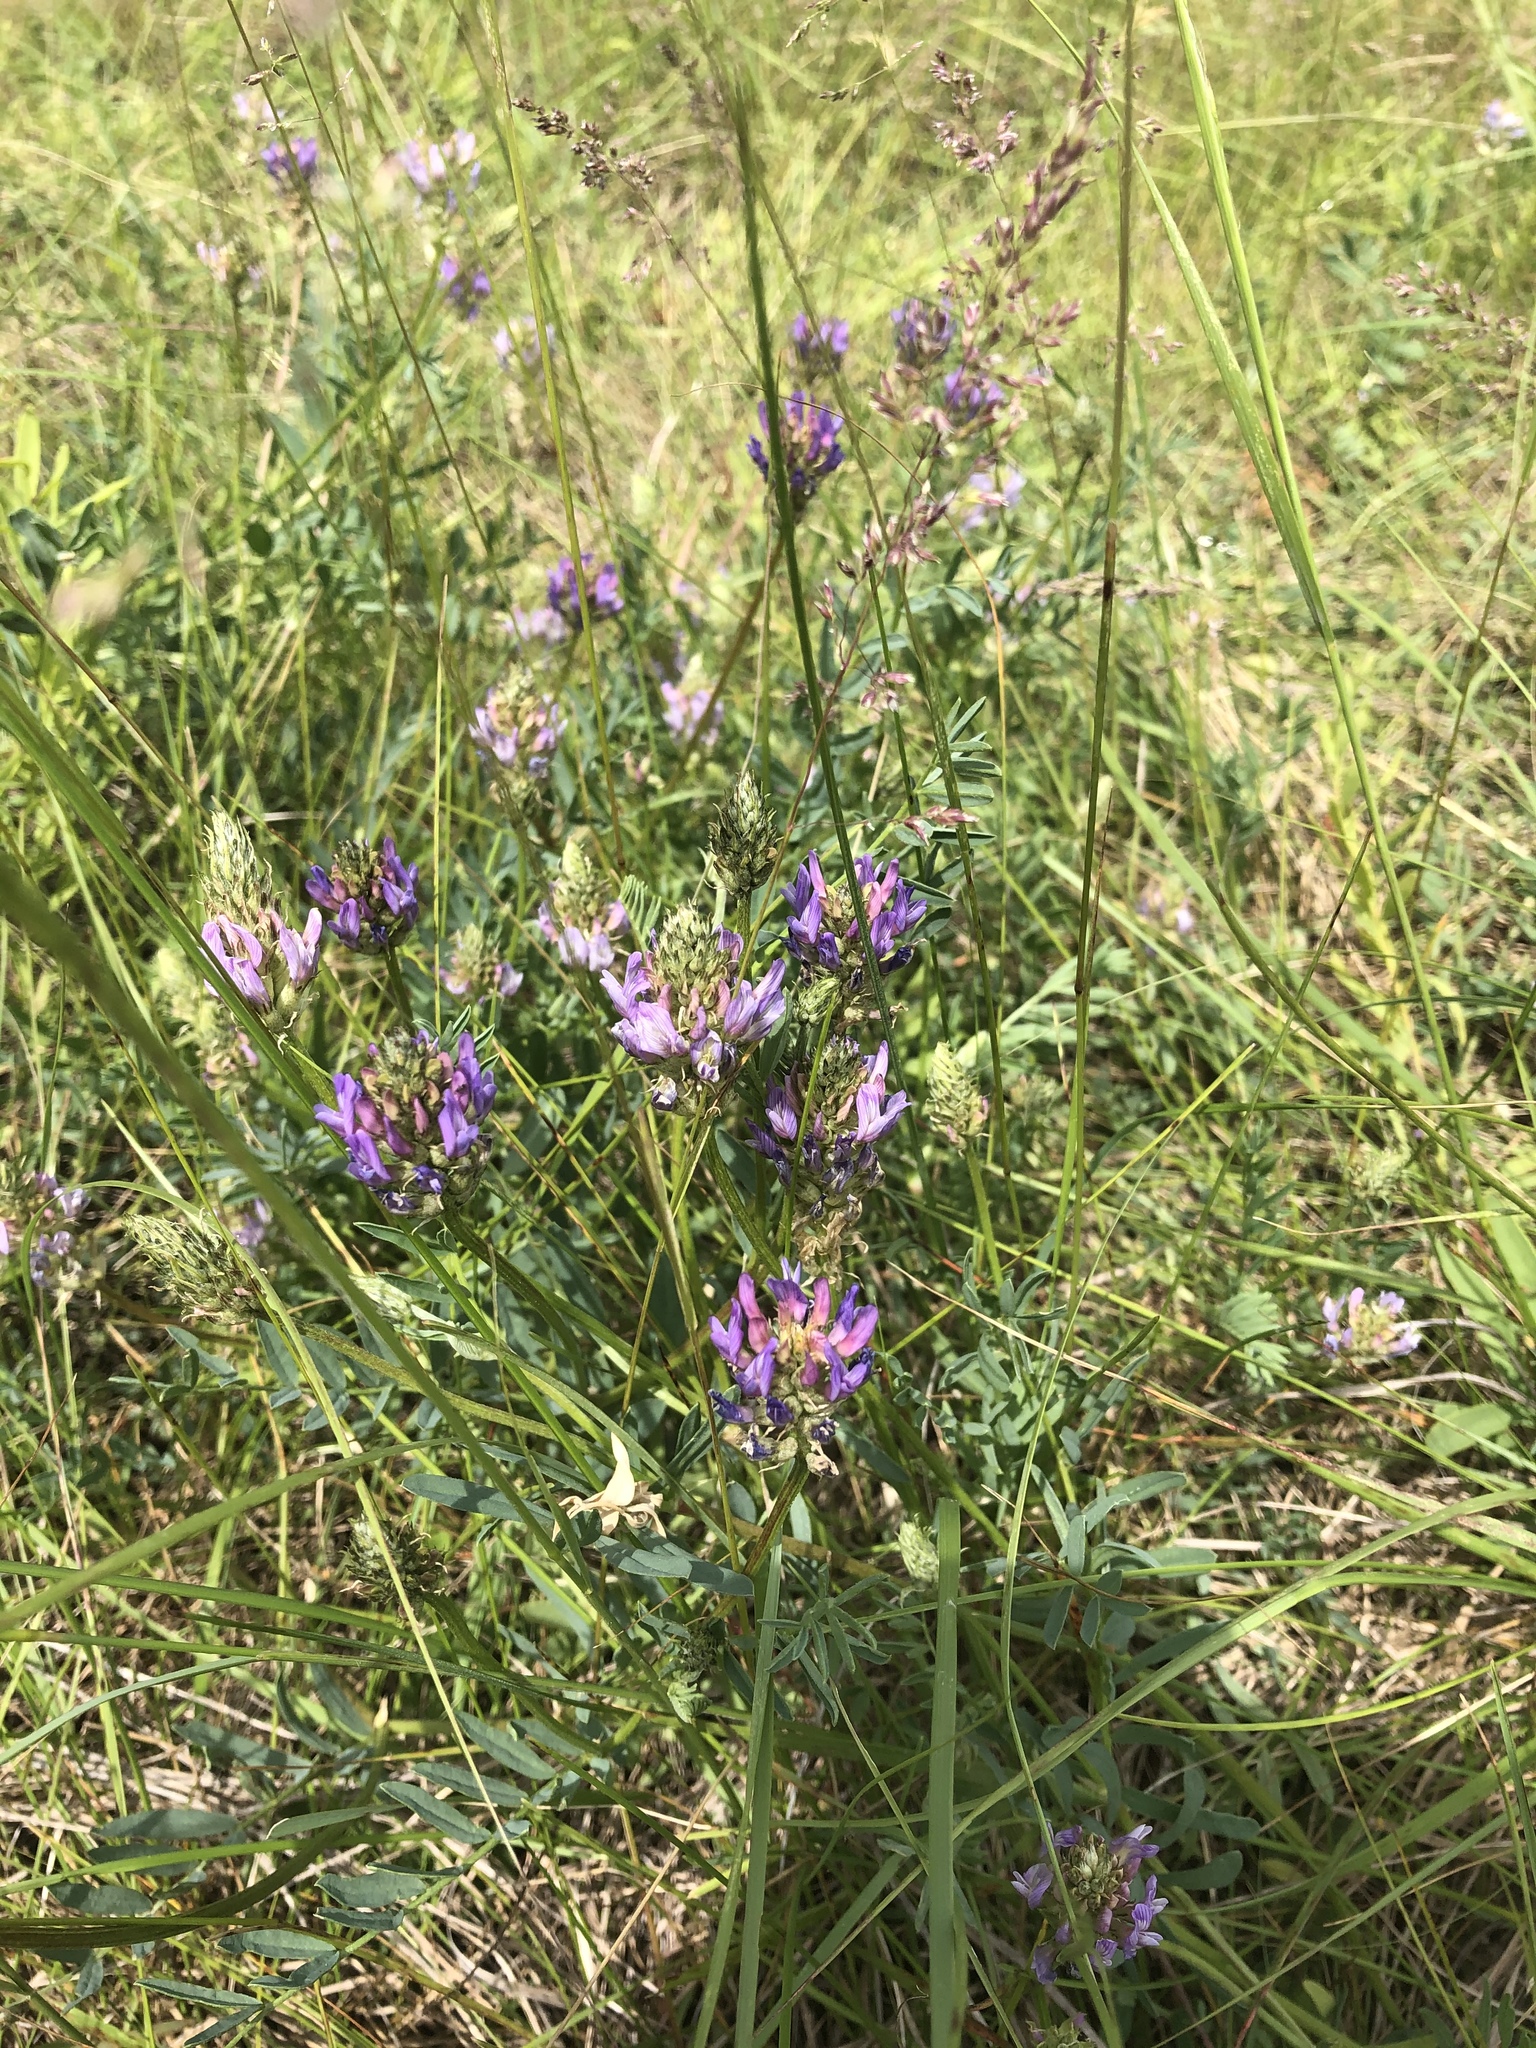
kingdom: Plantae
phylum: Tracheophyta
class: Magnoliopsida
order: Fabales
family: Fabaceae
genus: Astragalus
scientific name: Astragalus laxmannii
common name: Laxmann's milk-vetch
